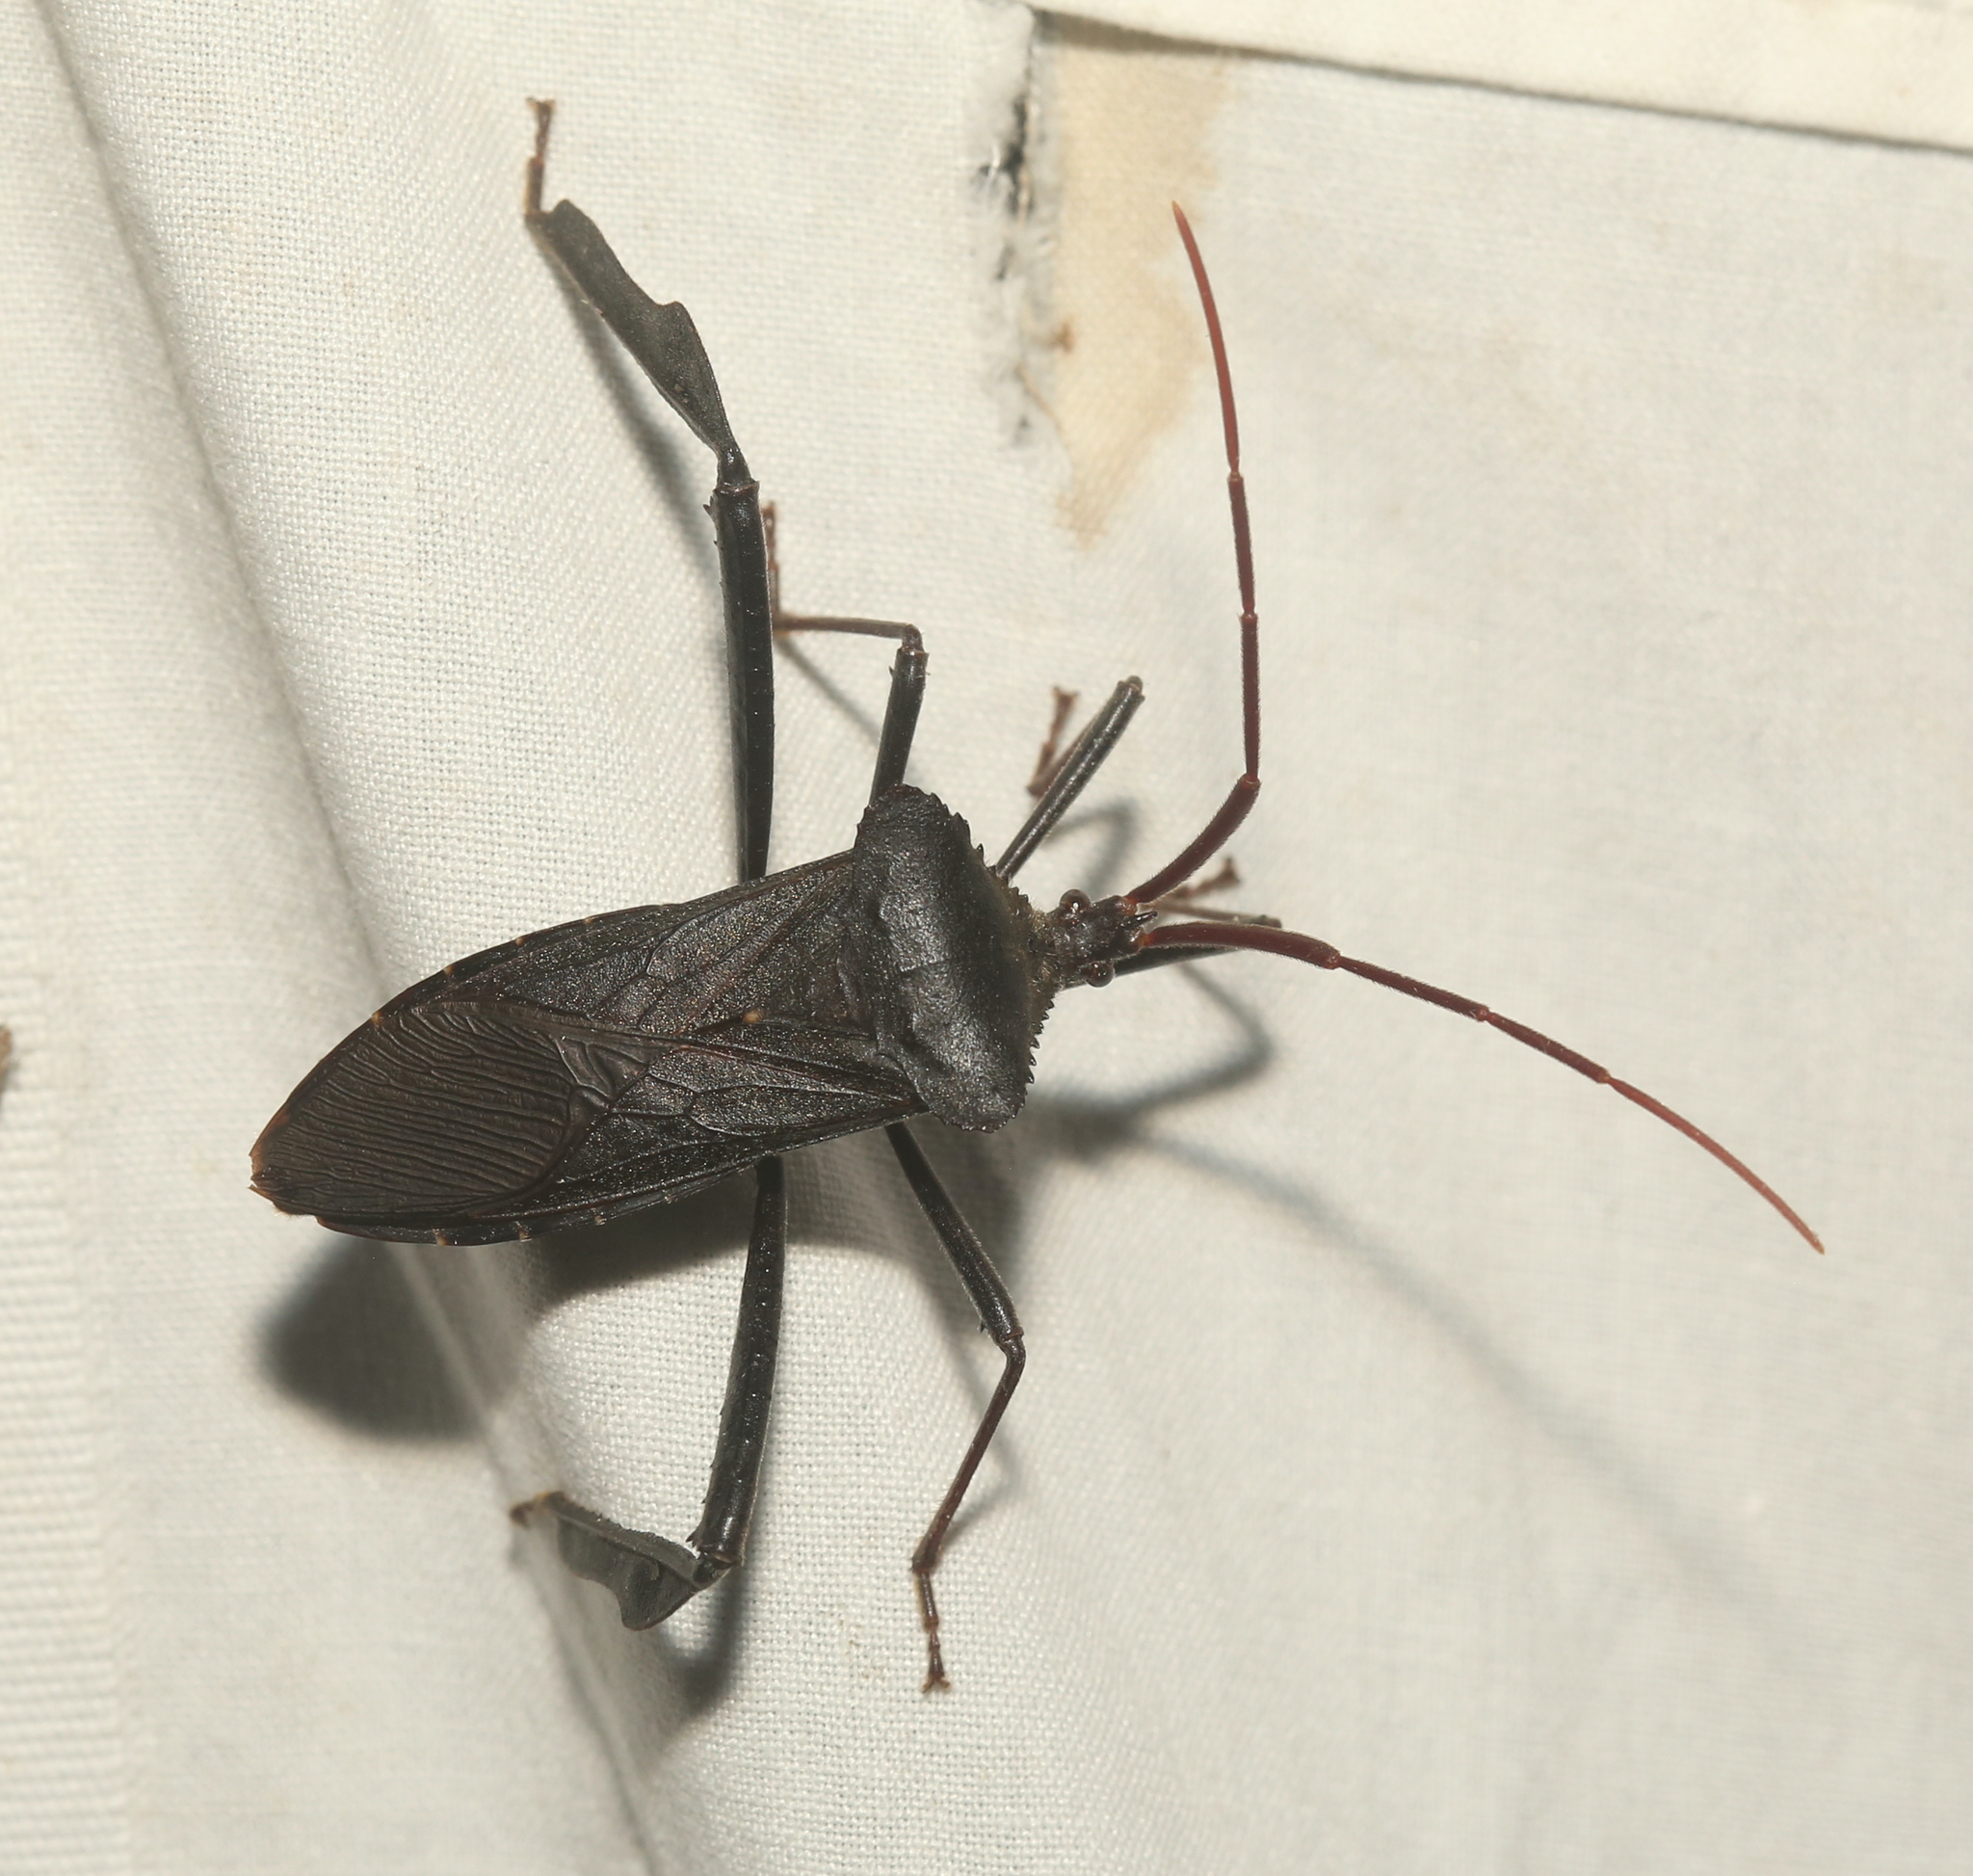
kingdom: Animalia
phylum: Arthropoda
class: Insecta
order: Hemiptera
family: Coreidae
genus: Acanthocephala
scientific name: Acanthocephala declivis
